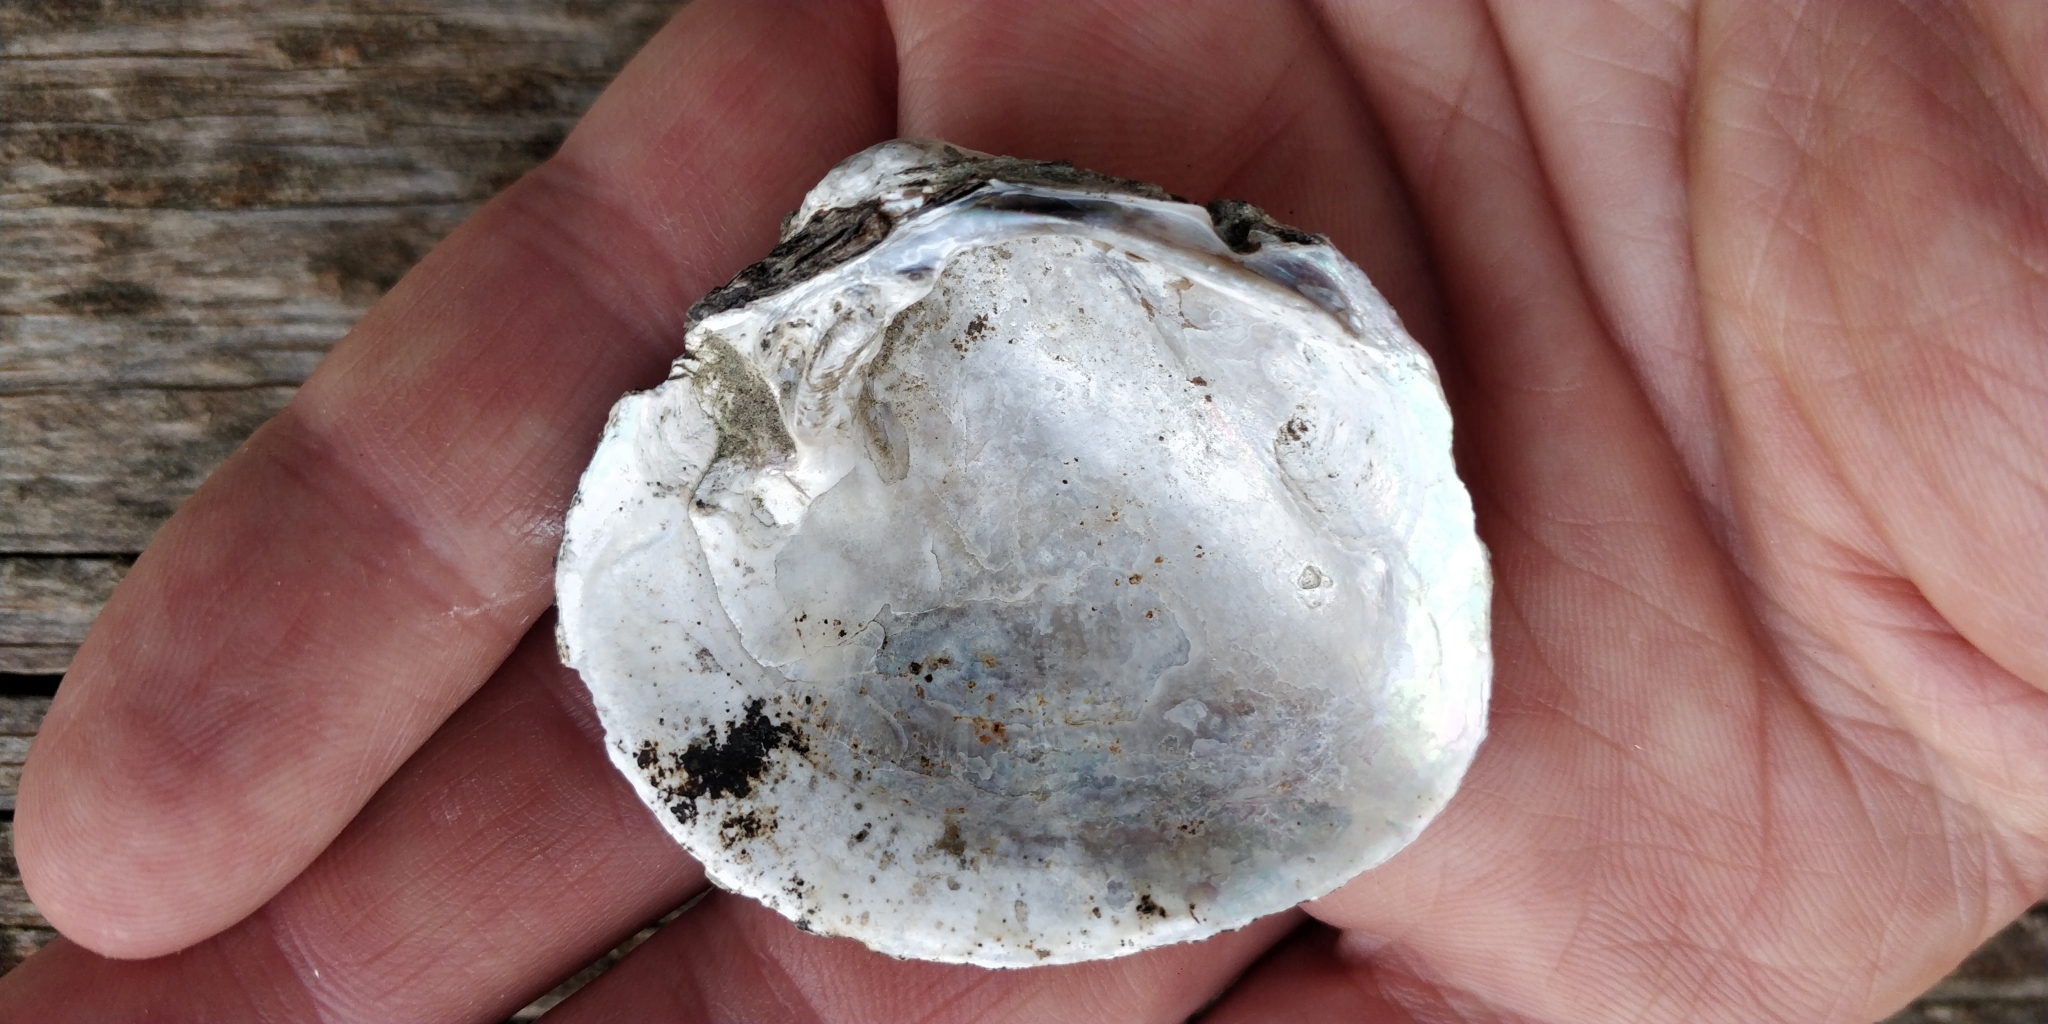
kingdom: Animalia
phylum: Mollusca
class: Bivalvia
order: Unionida
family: Unionidae
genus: Cyclonaias
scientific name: Cyclonaias pustulosa
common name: Pimpleback
